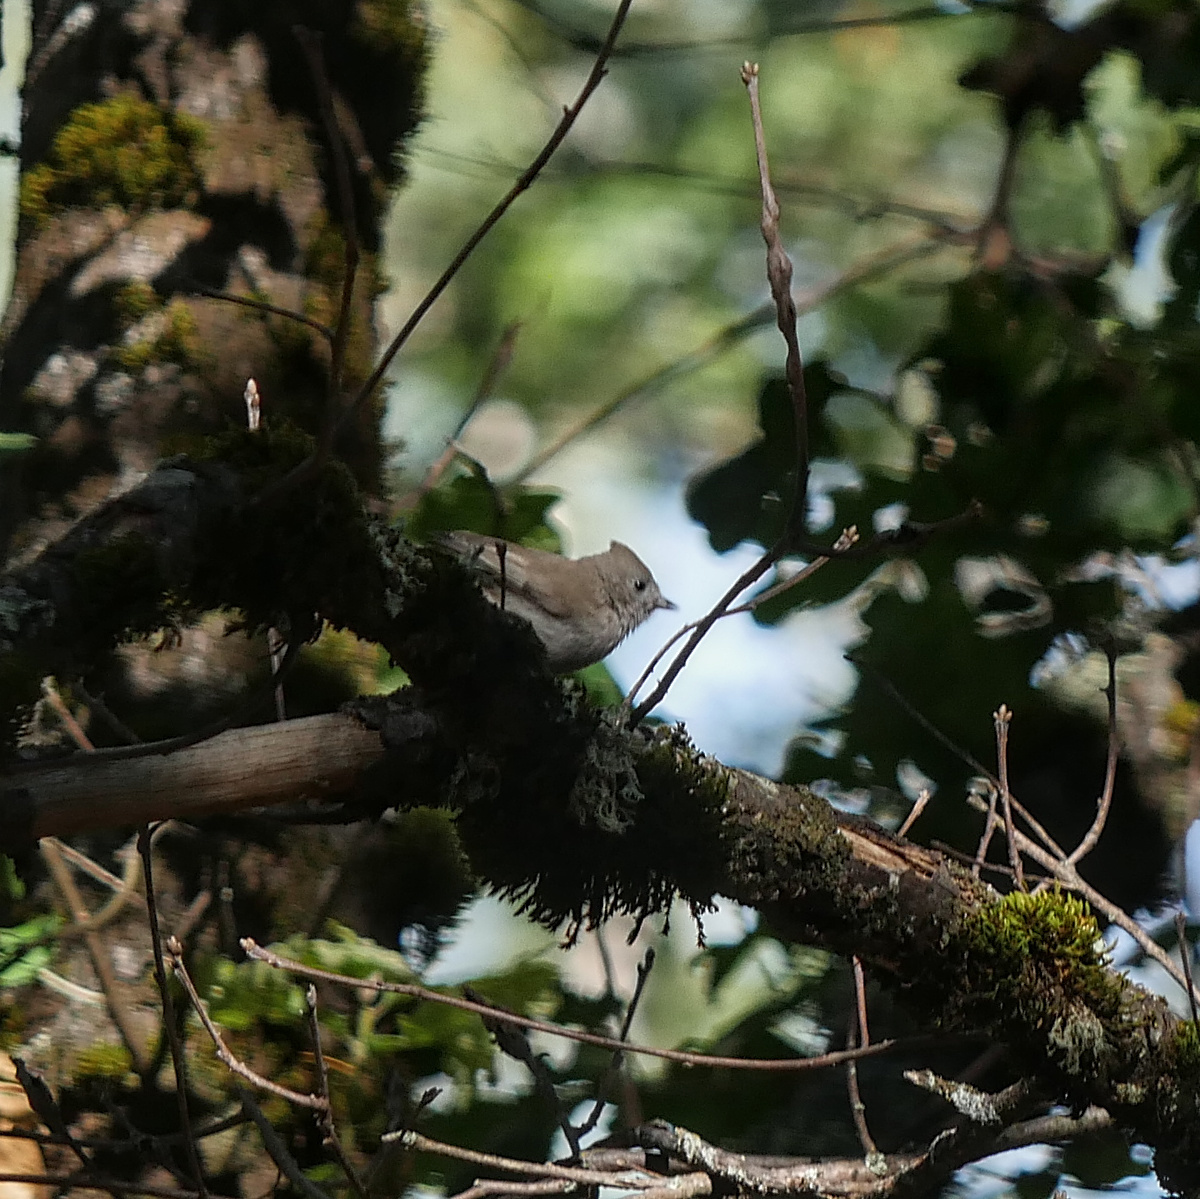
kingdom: Animalia
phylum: Chordata
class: Aves
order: Passeriformes
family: Paridae
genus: Baeolophus
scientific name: Baeolophus inornatus
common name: Oak titmouse
